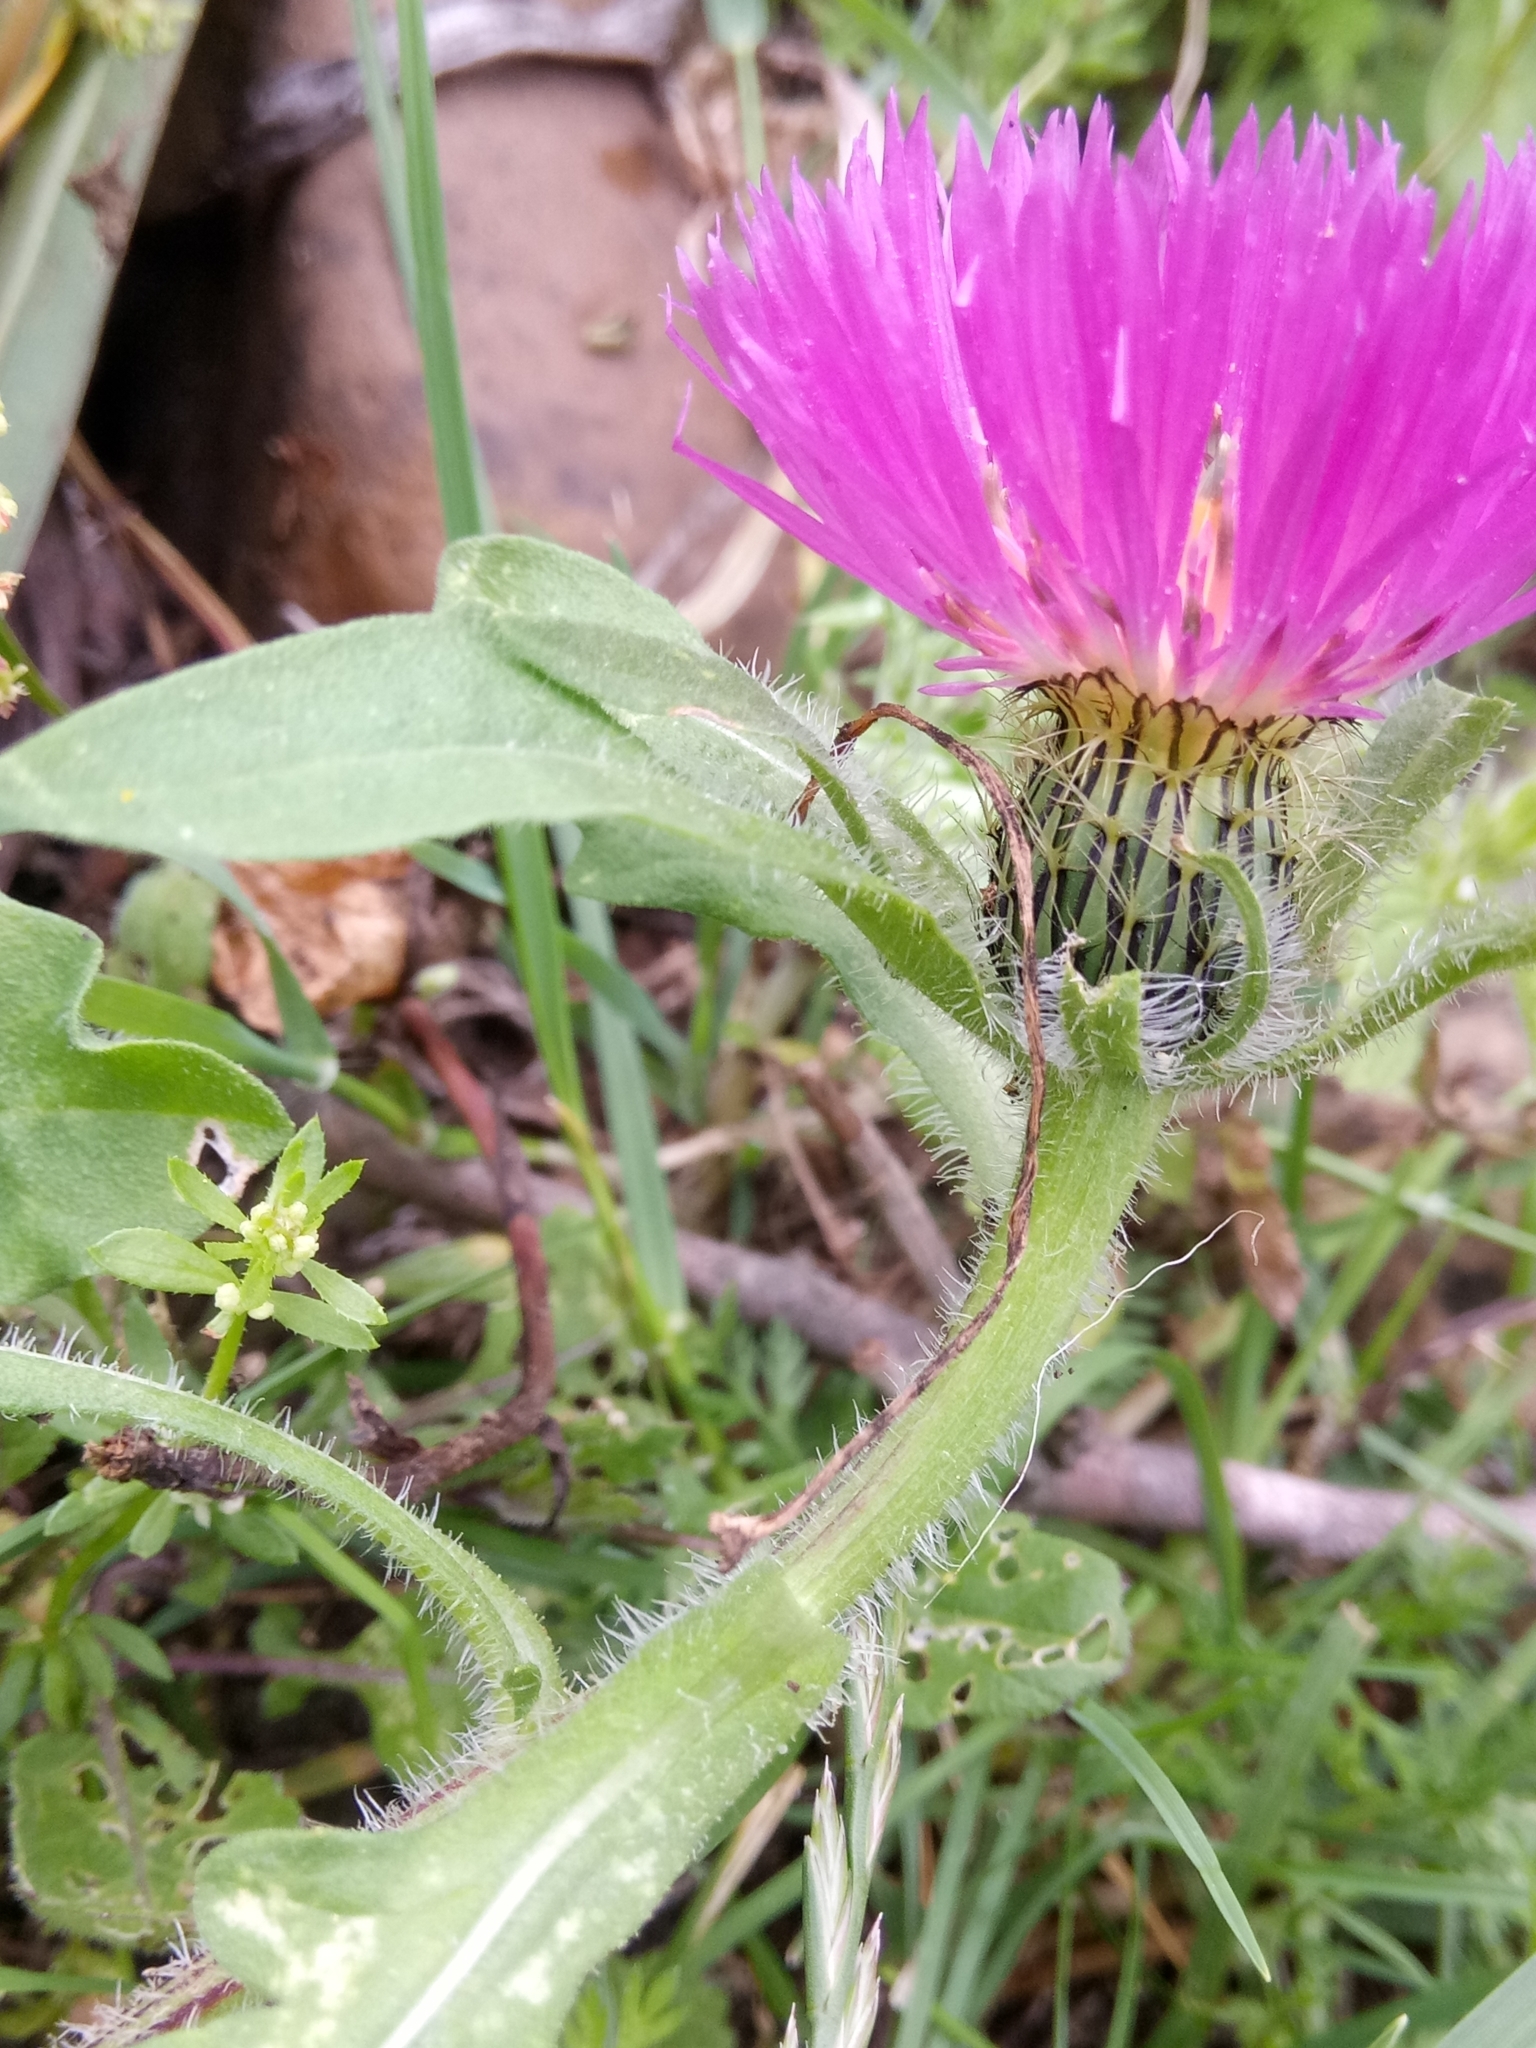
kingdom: Plantae
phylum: Tracheophyta
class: Magnoliopsida
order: Asterales
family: Asteraceae
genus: Centaurea
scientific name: Centaurea pullata
